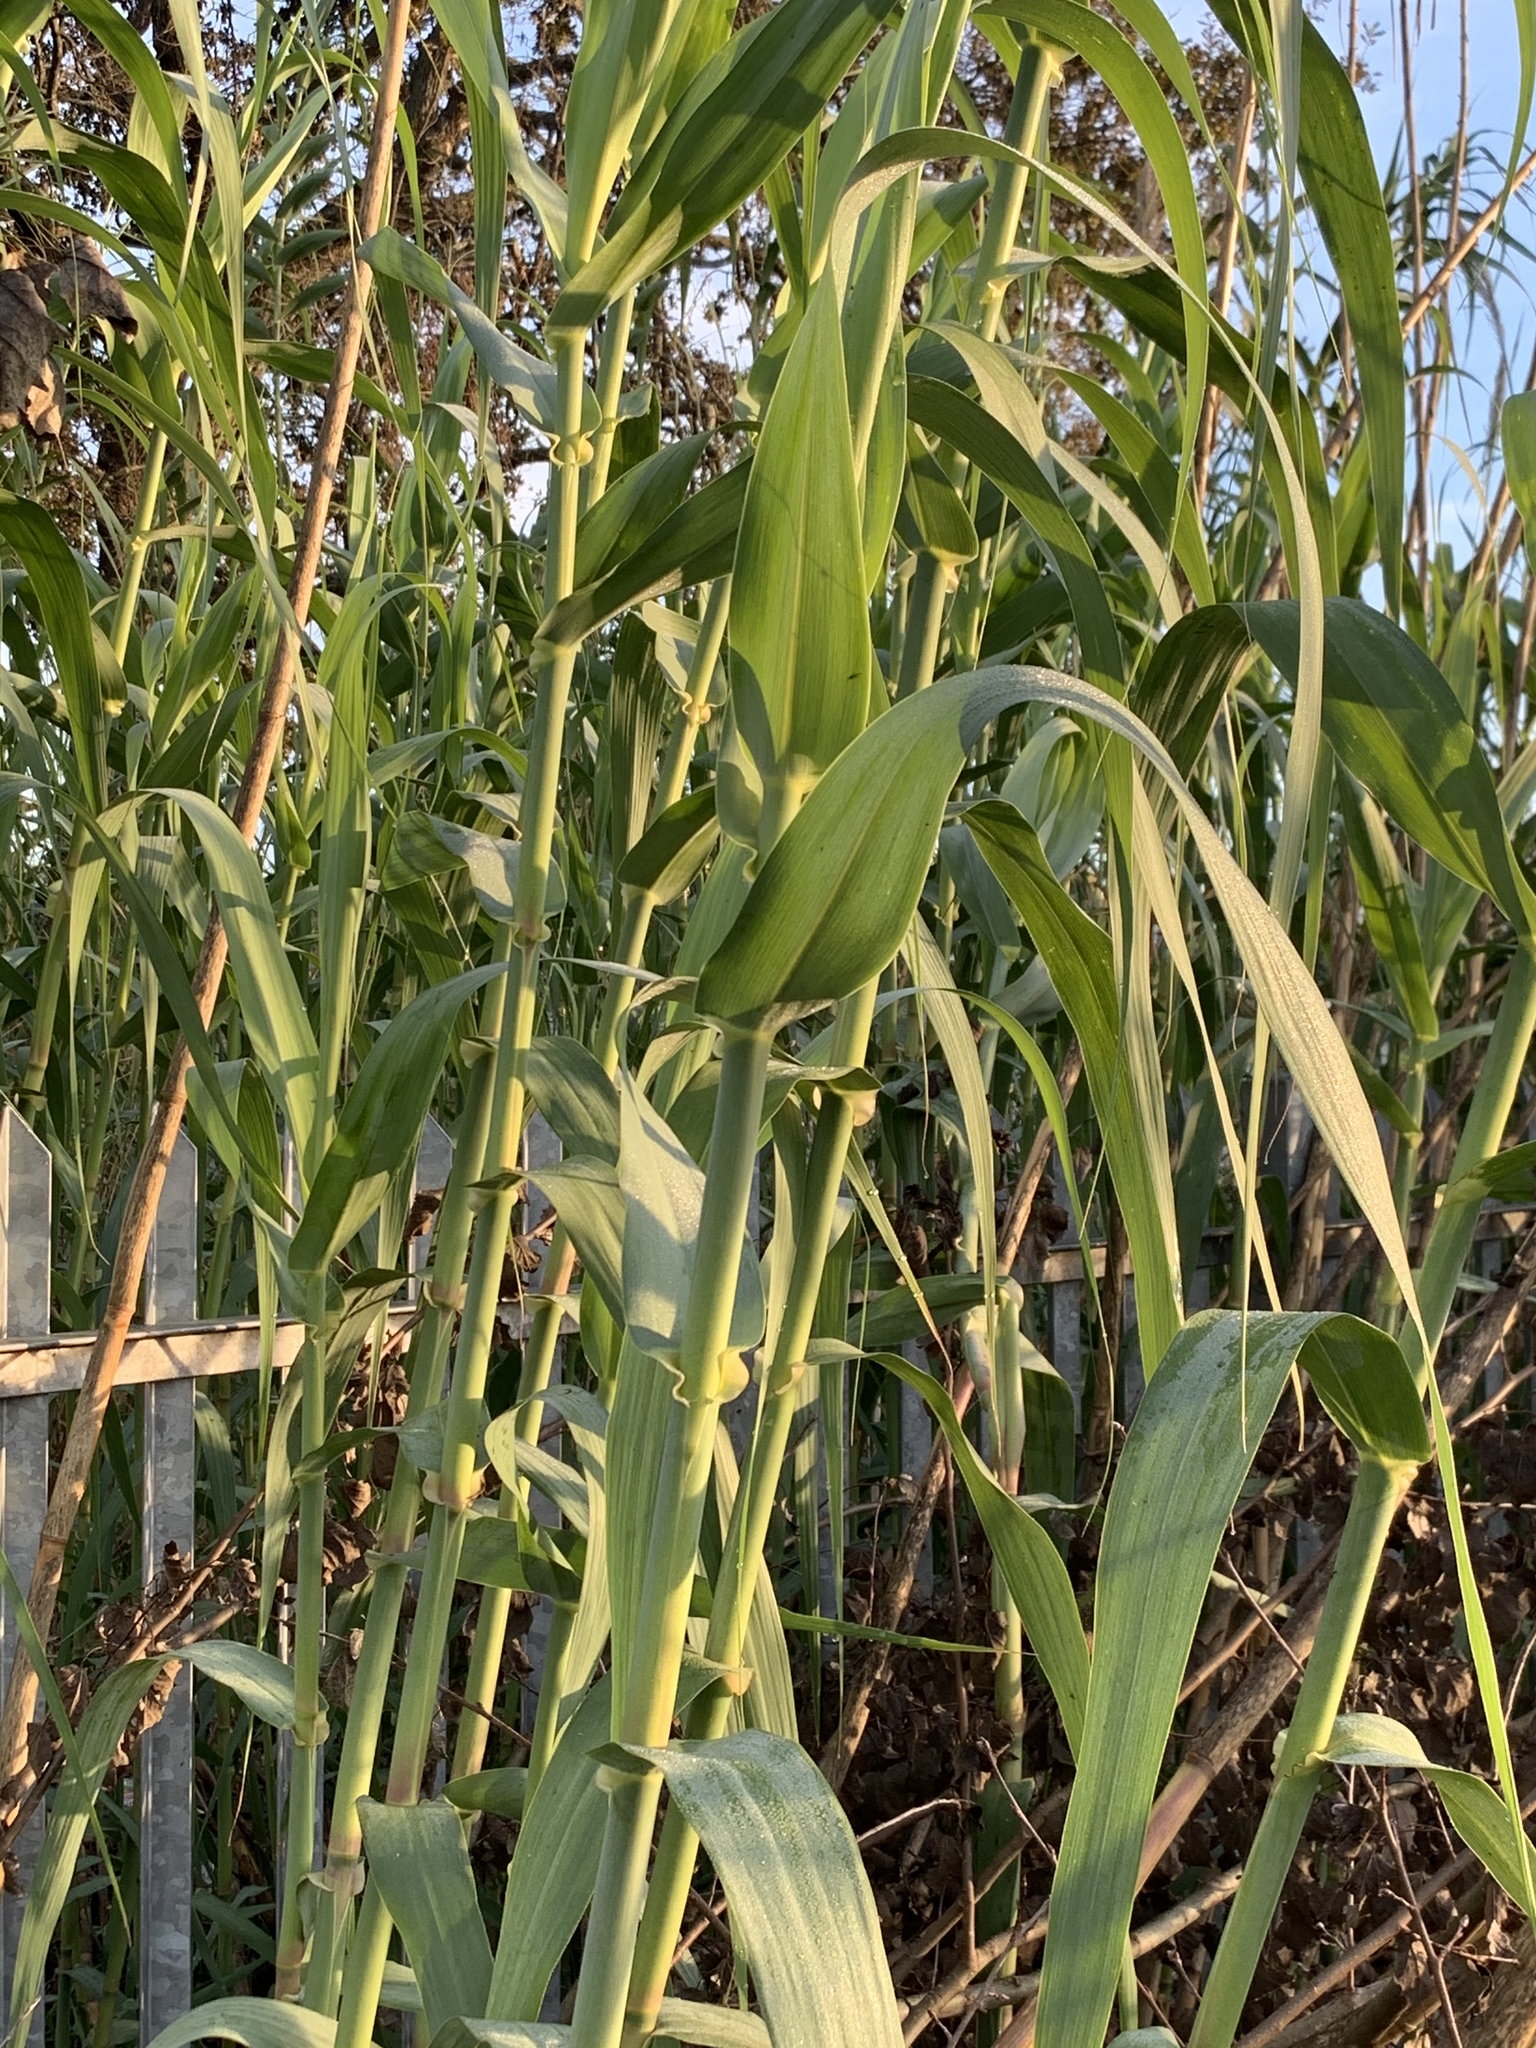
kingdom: Plantae
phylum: Tracheophyta
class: Liliopsida
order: Poales
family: Poaceae
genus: Arundo
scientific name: Arundo donax
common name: Giant reed
